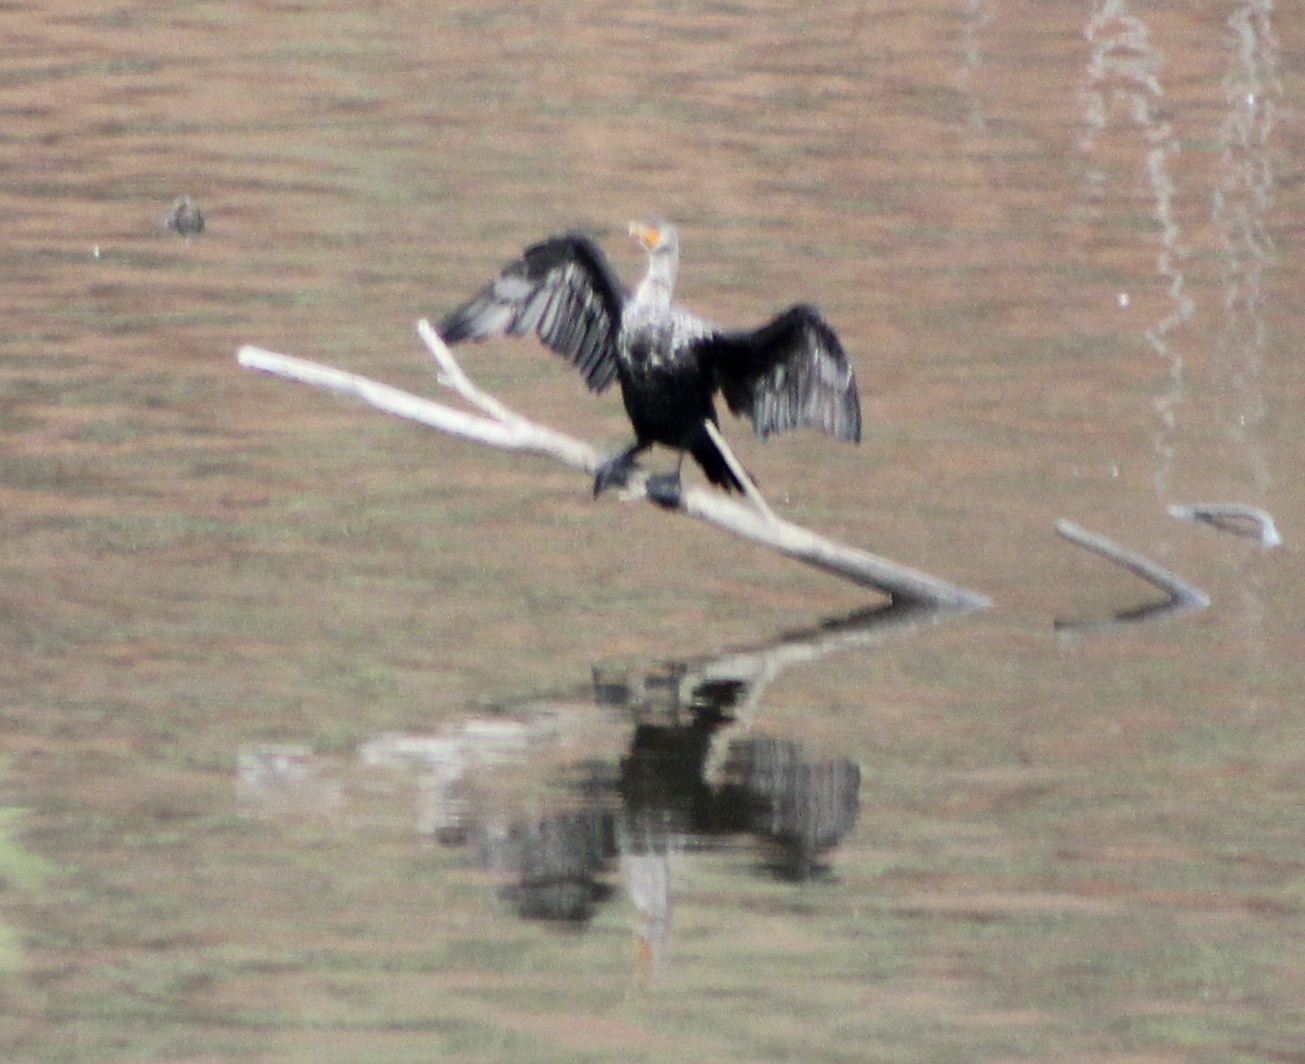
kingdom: Animalia
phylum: Chordata
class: Aves
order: Suliformes
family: Phalacrocoracidae
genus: Phalacrocorax
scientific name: Phalacrocorax auritus
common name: Double-crested cormorant
